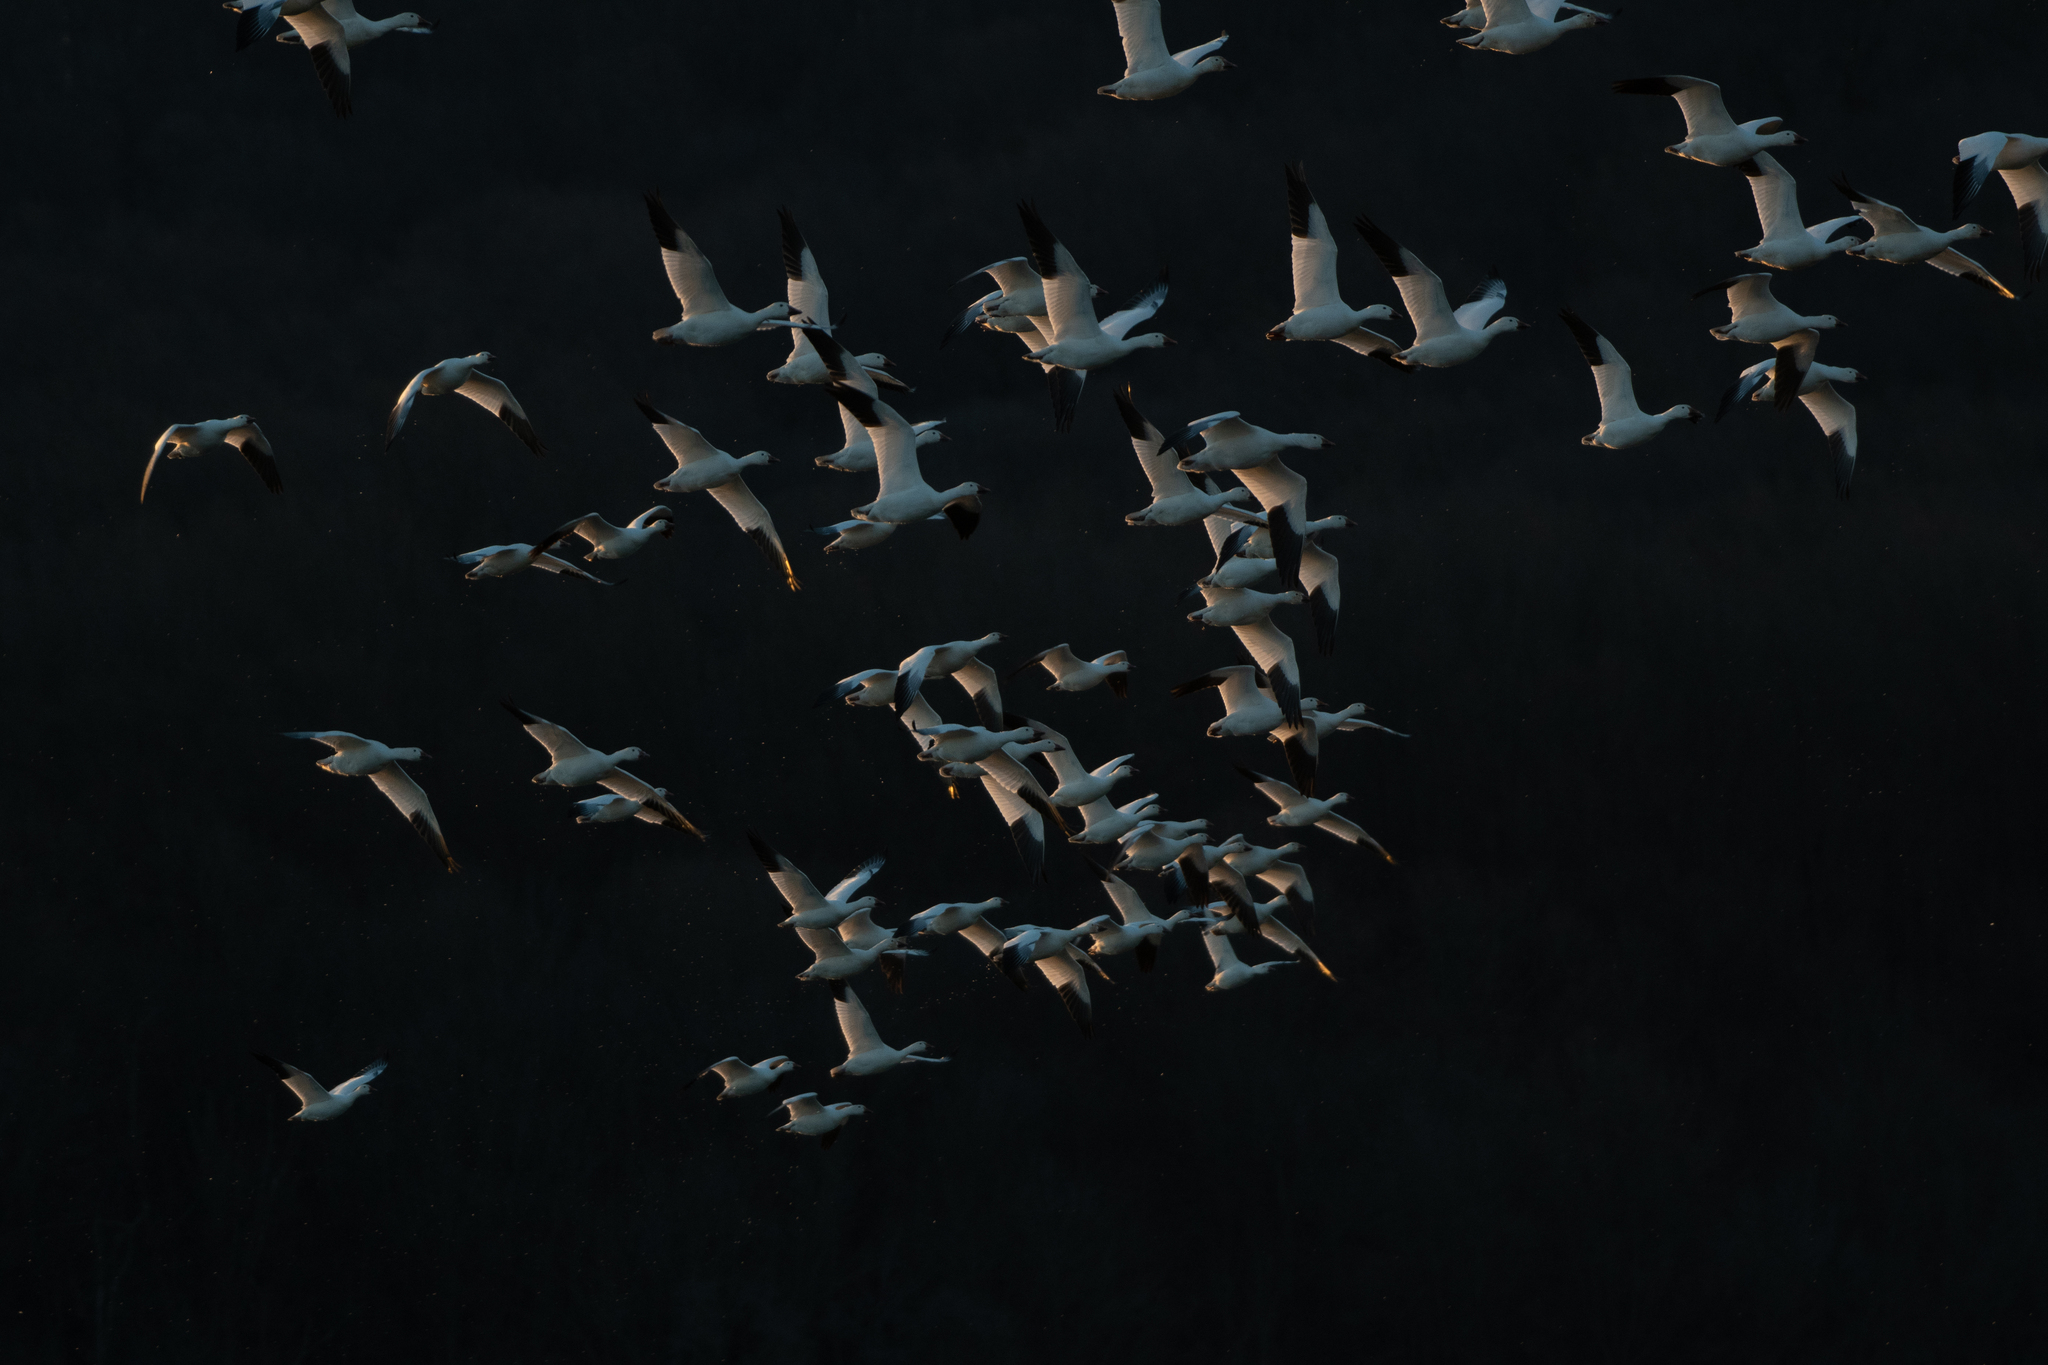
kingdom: Animalia
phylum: Chordata
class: Aves
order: Anseriformes
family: Anatidae
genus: Anser
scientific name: Anser caerulescens
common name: Snow goose
